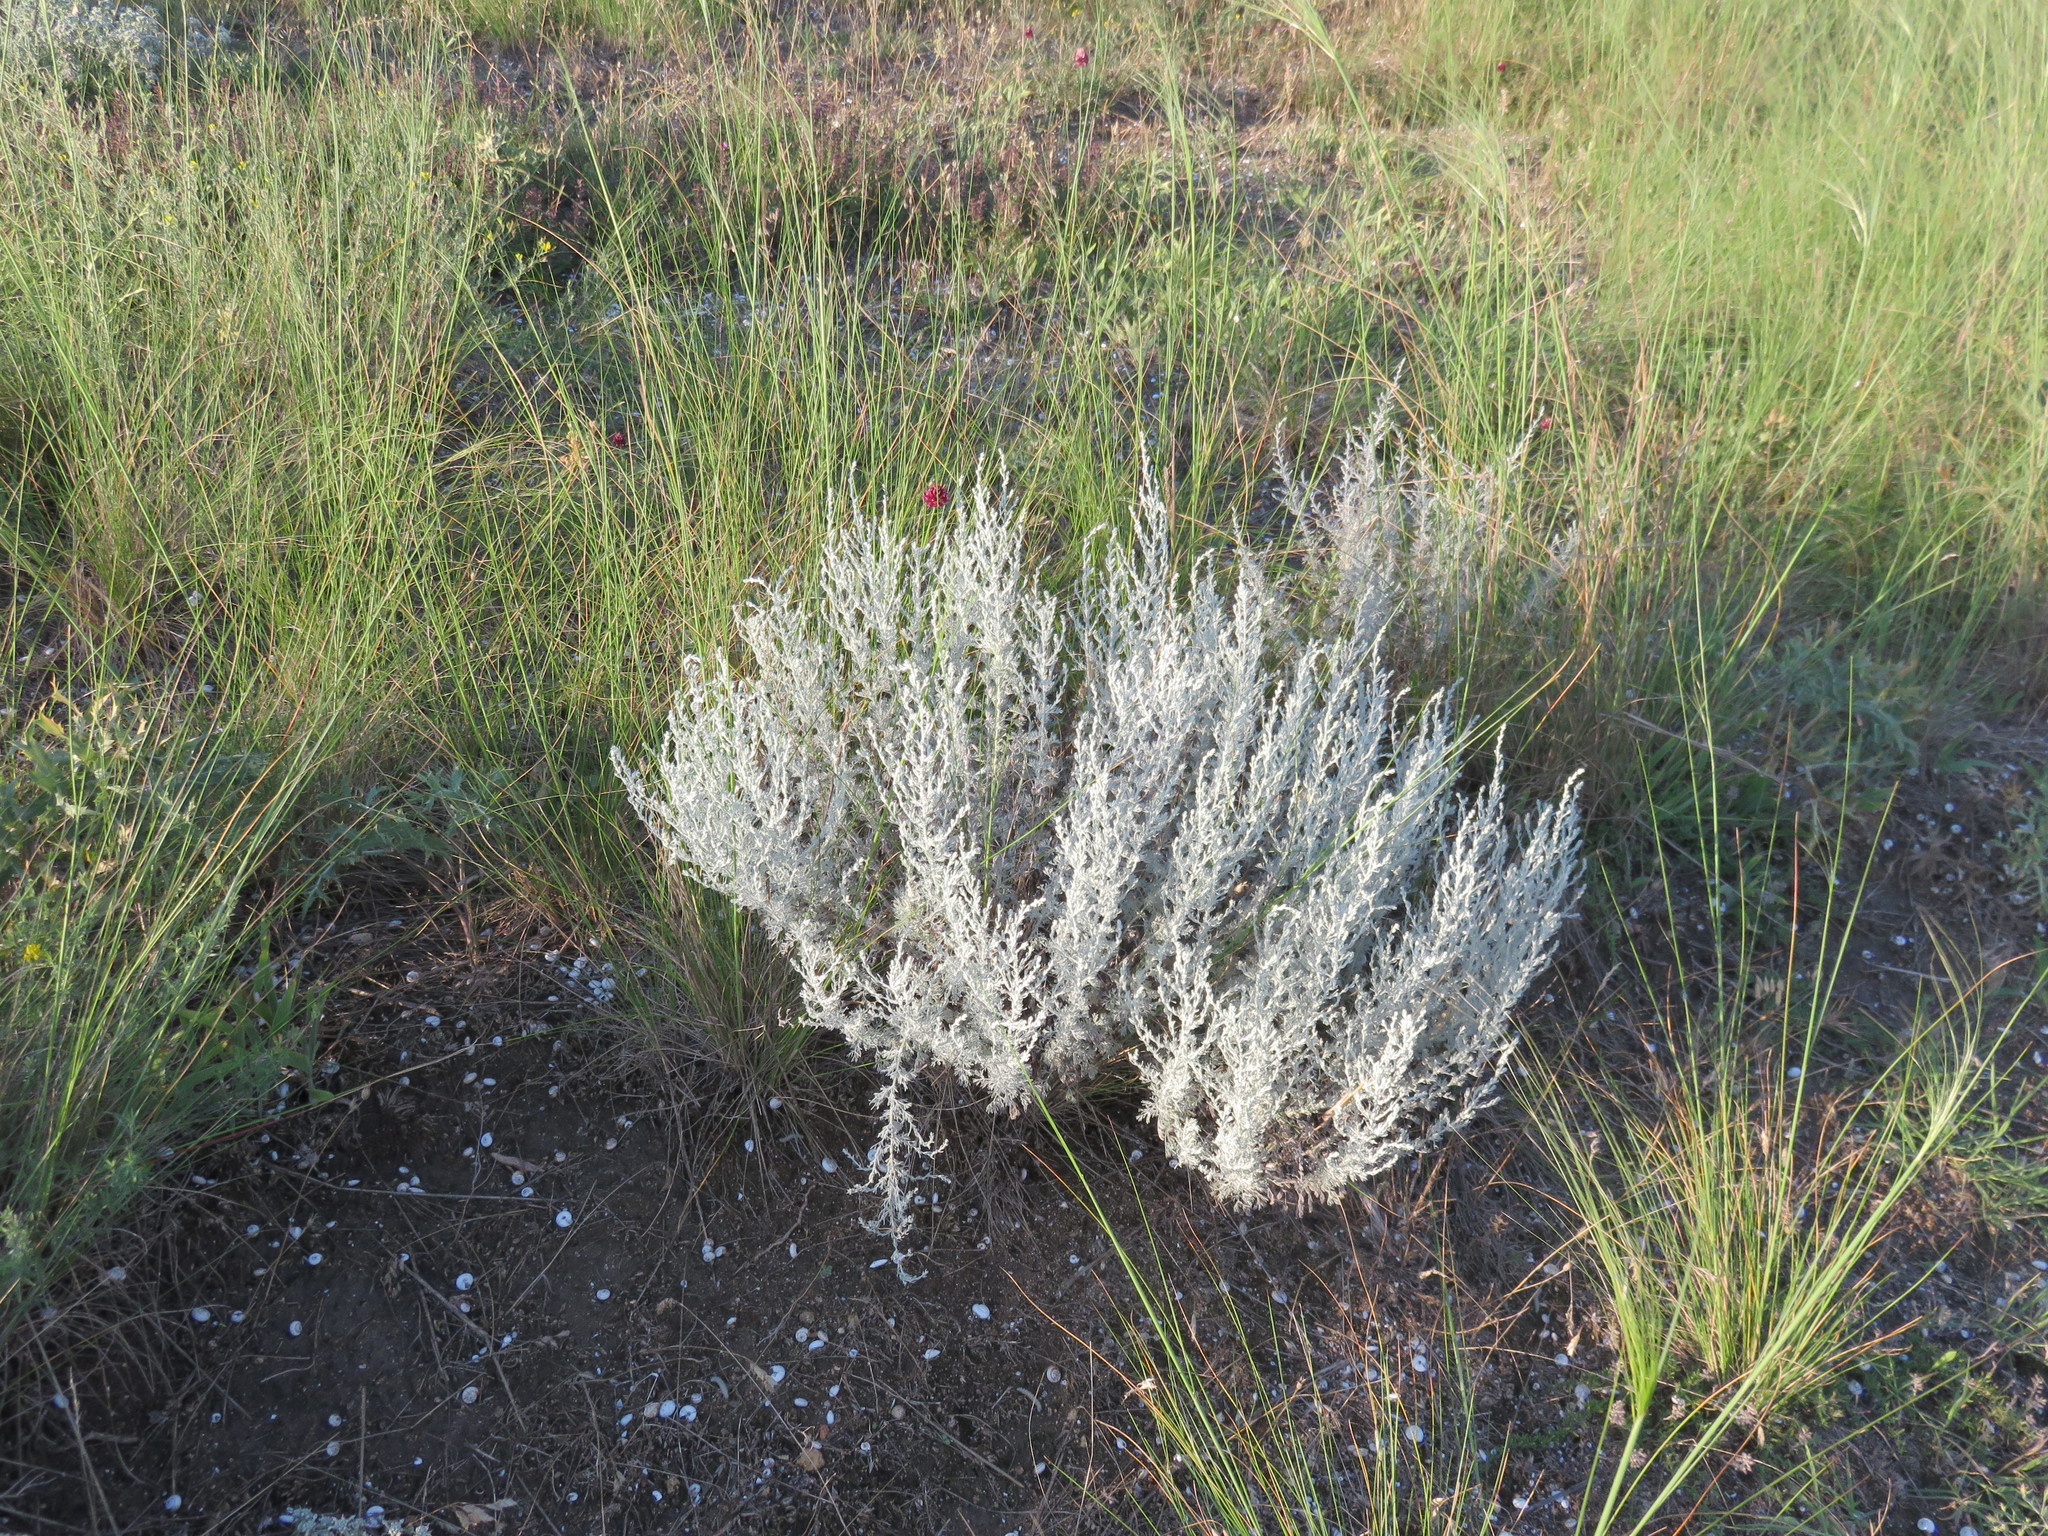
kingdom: Plantae
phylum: Tracheophyta
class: Magnoliopsida
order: Asterales
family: Asteraceae
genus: Artemisia
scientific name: Artemisia austriaca
